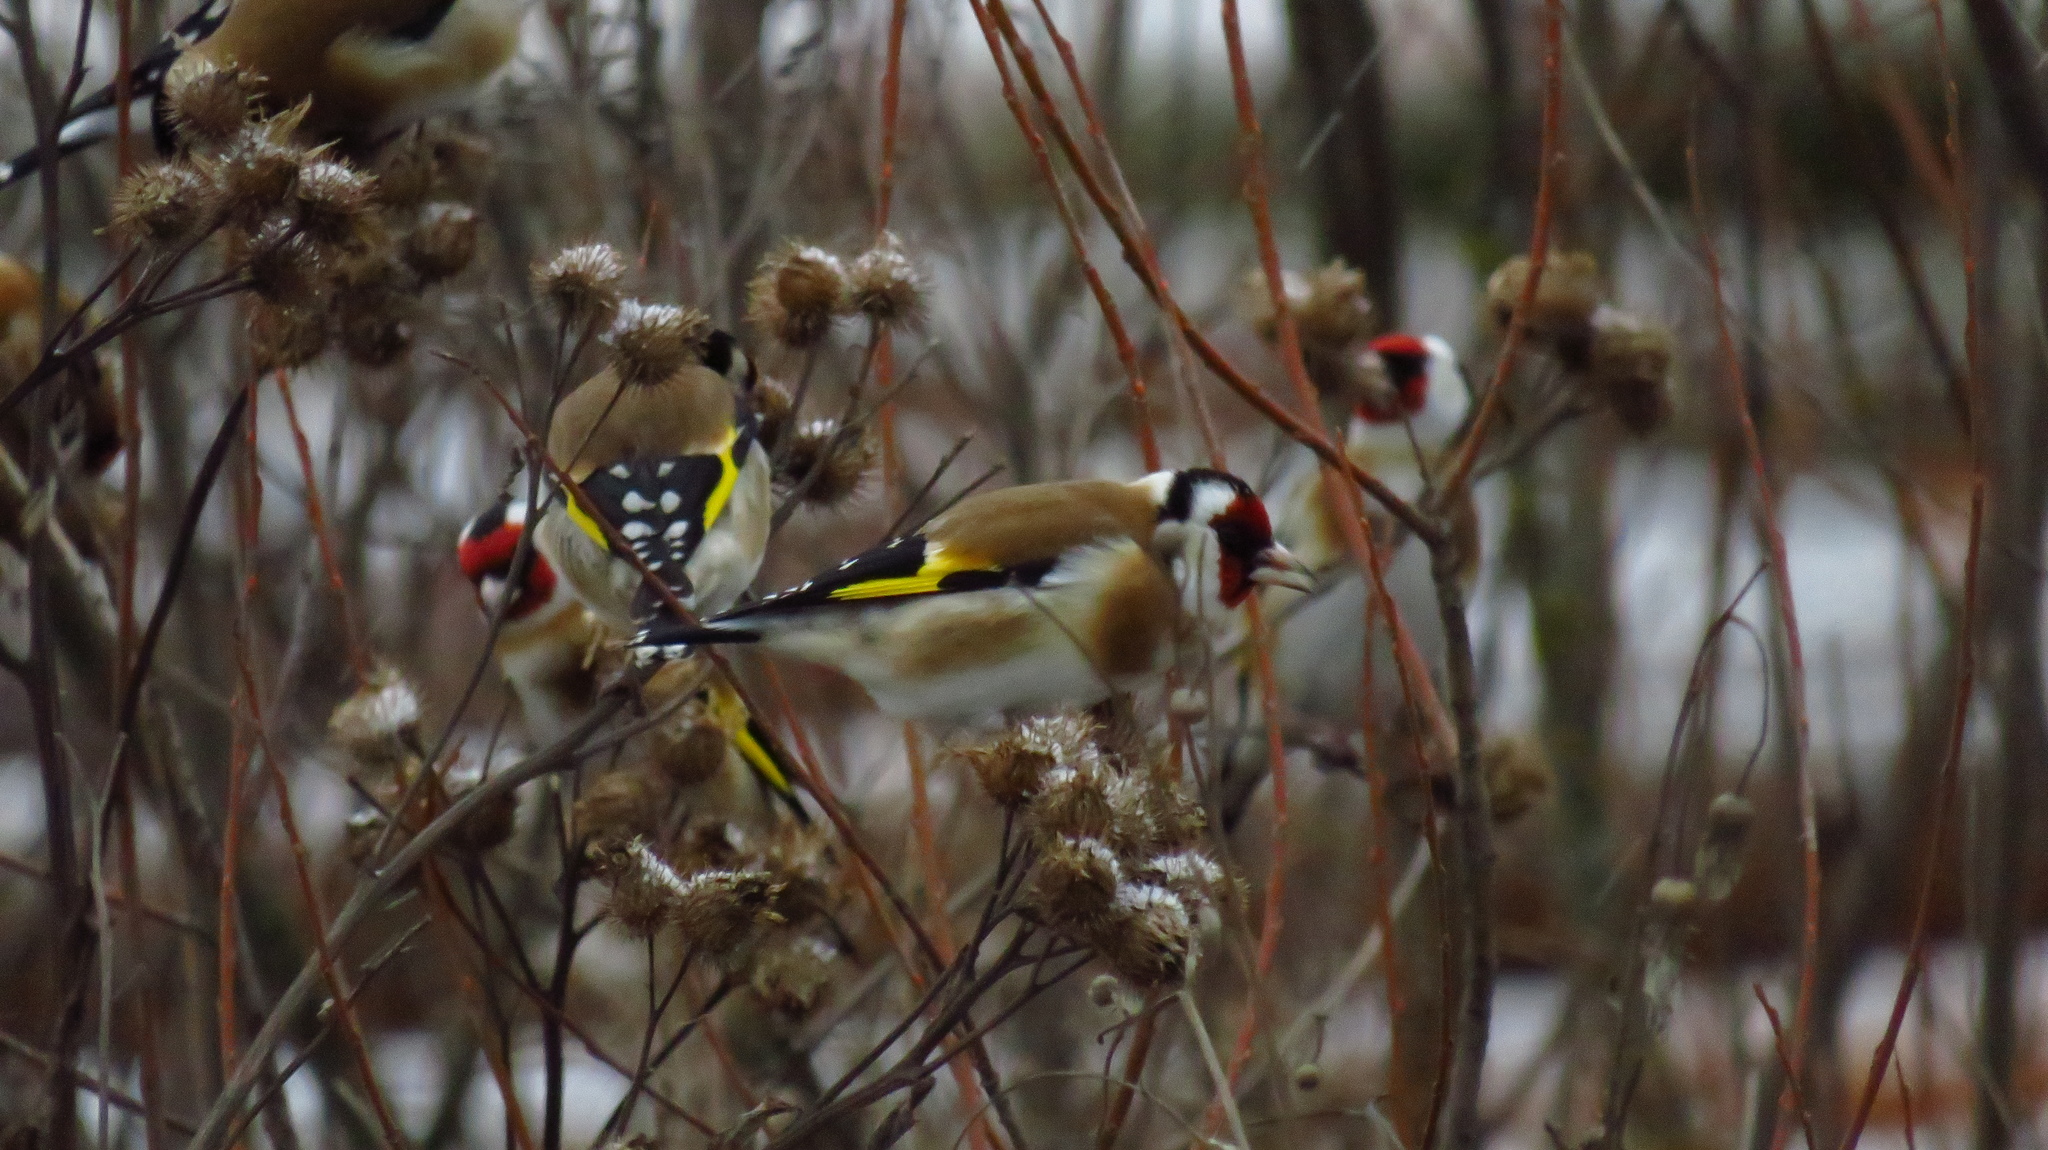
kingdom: Animalia
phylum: Chordata
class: Aves
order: Passeriformes
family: Fringillidae
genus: Carduelis
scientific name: Carduelis carduelis
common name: European goldfinch
